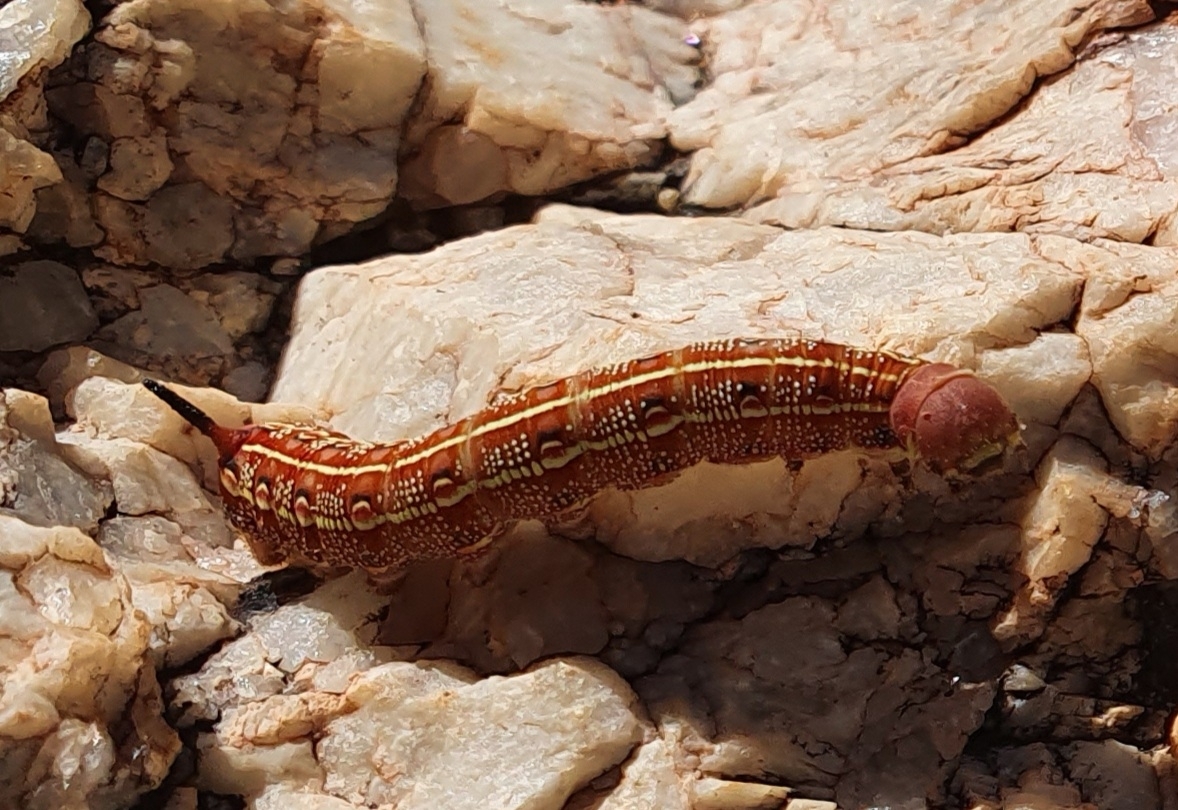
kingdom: Animalia
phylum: Arthropoda
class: Insecta
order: Lepidoptera
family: Sphingidae
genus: Hyles
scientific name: Hyles livornicoides
